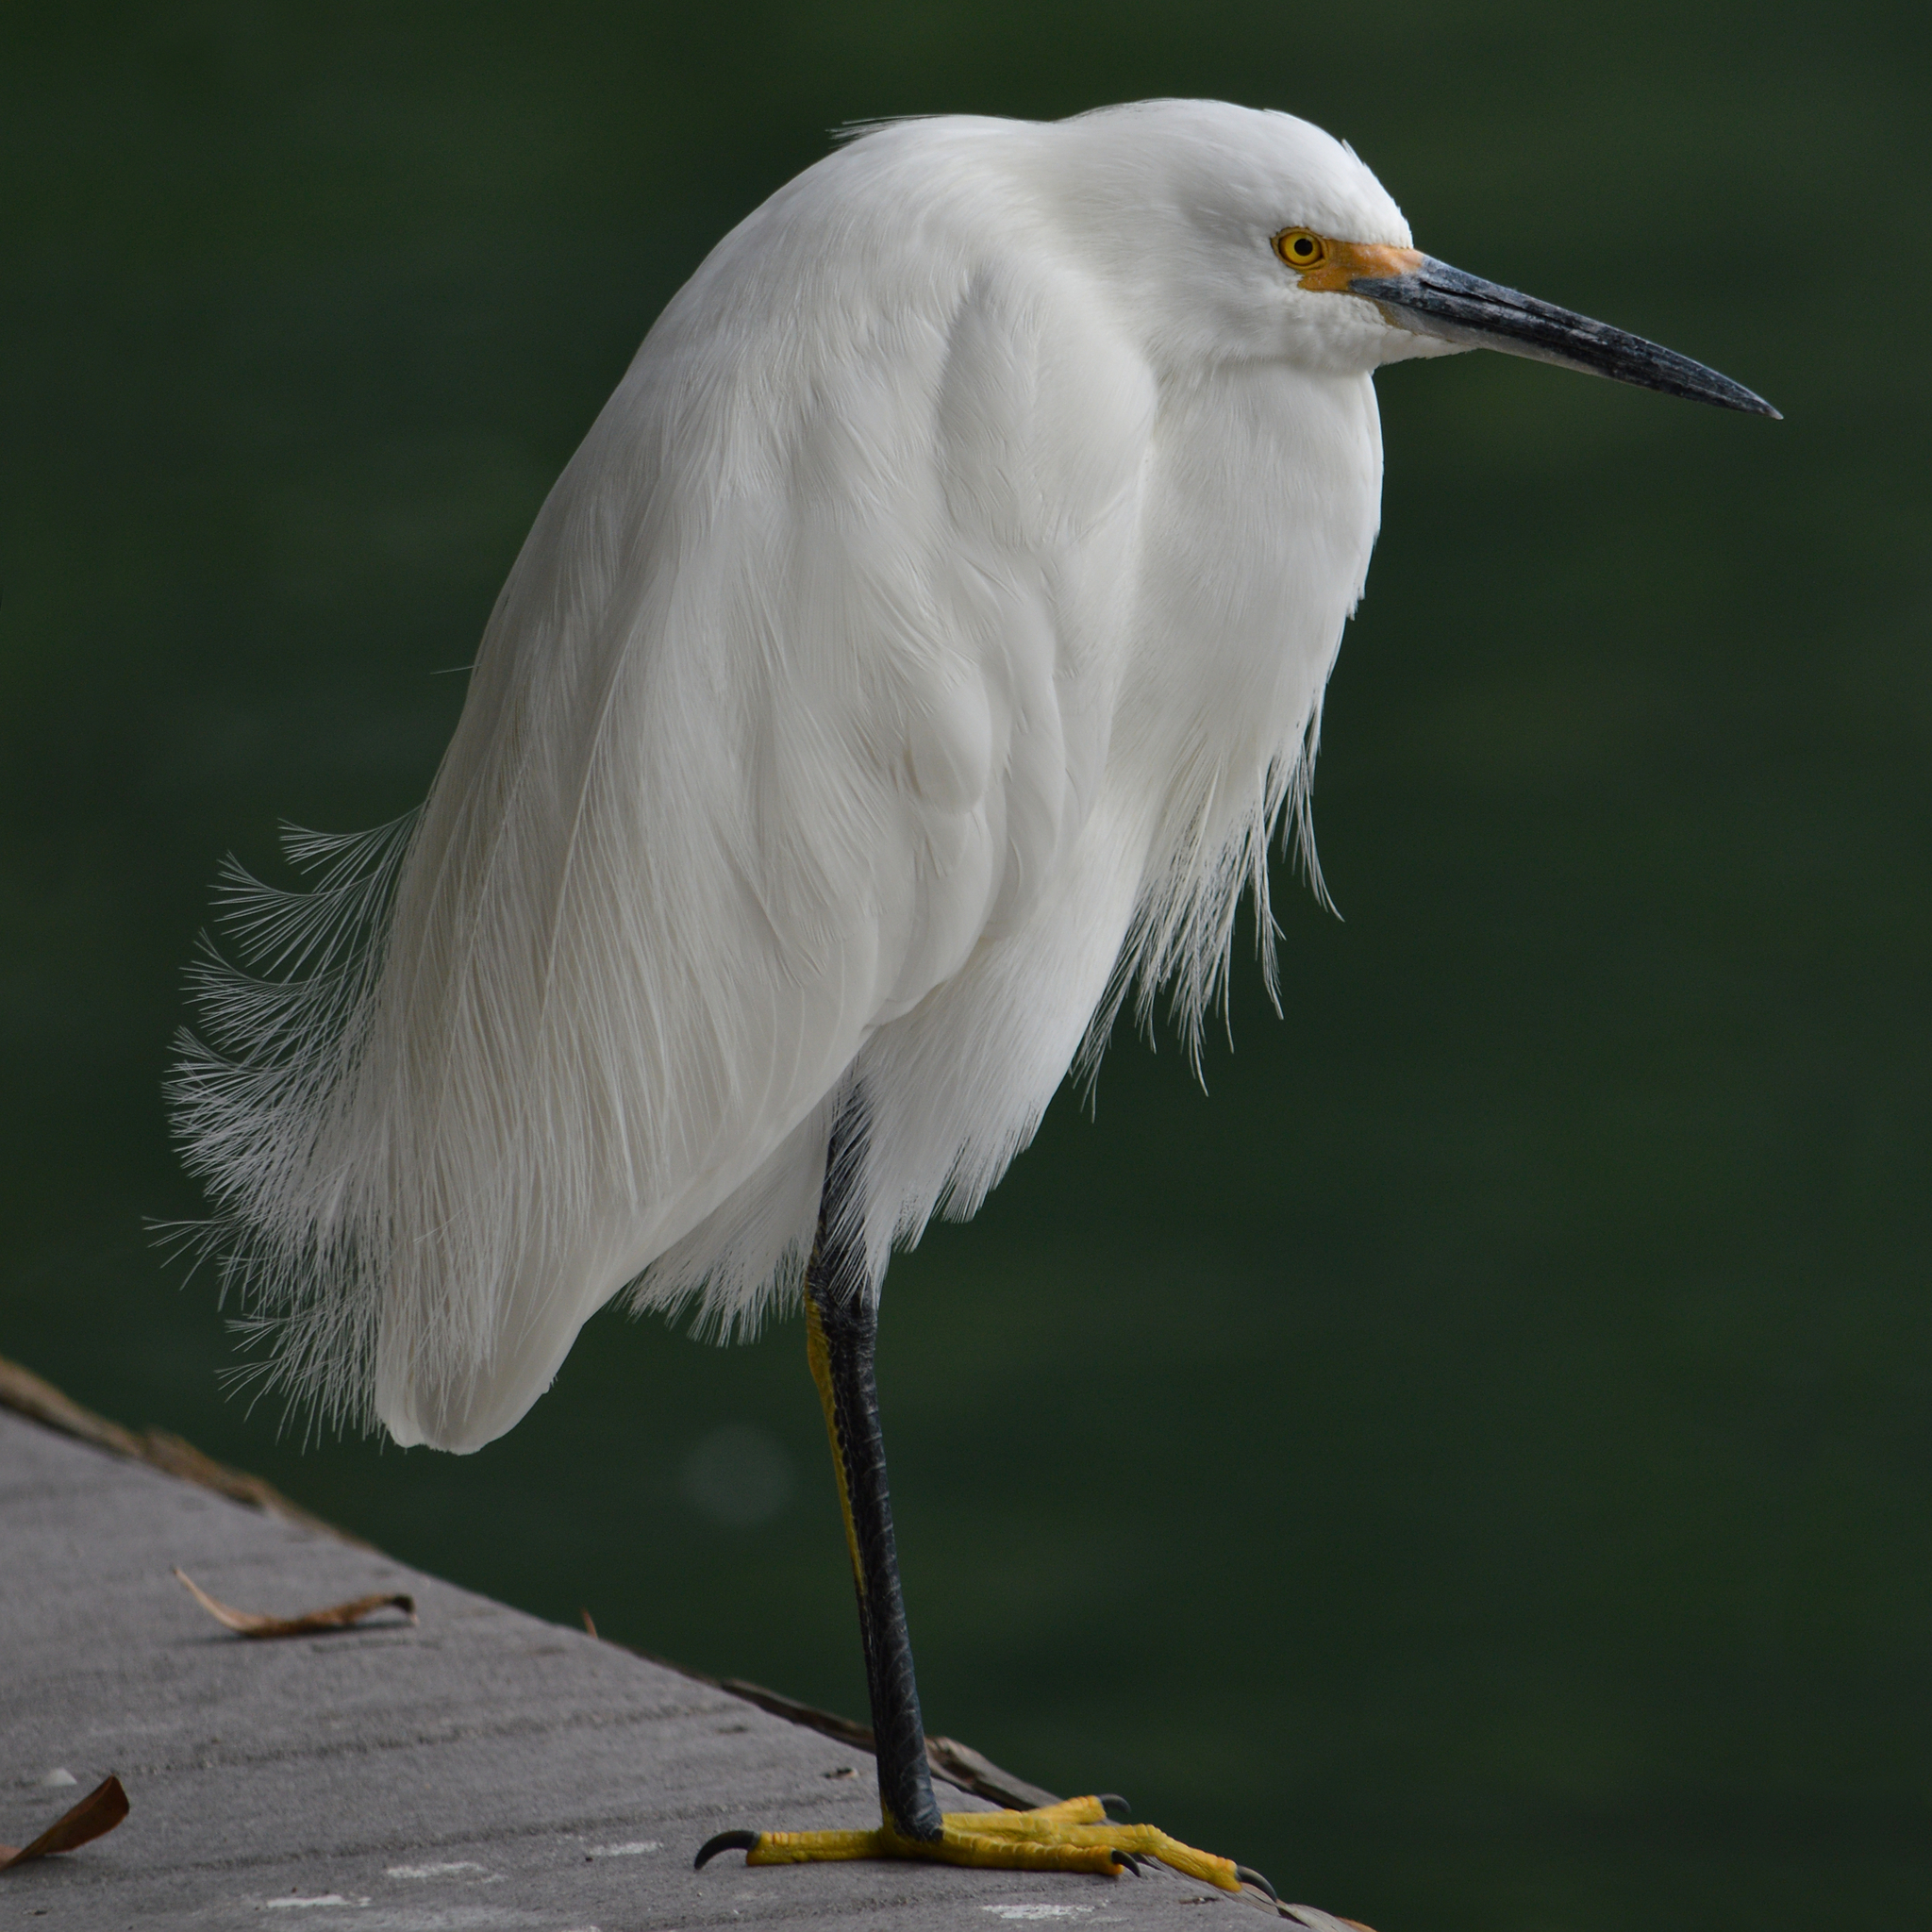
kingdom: Animalia
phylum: Chordata
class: Aves
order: Pelecaniformes
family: Ardeidae
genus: Egretta
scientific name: Egretta thula
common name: Snowy egret
